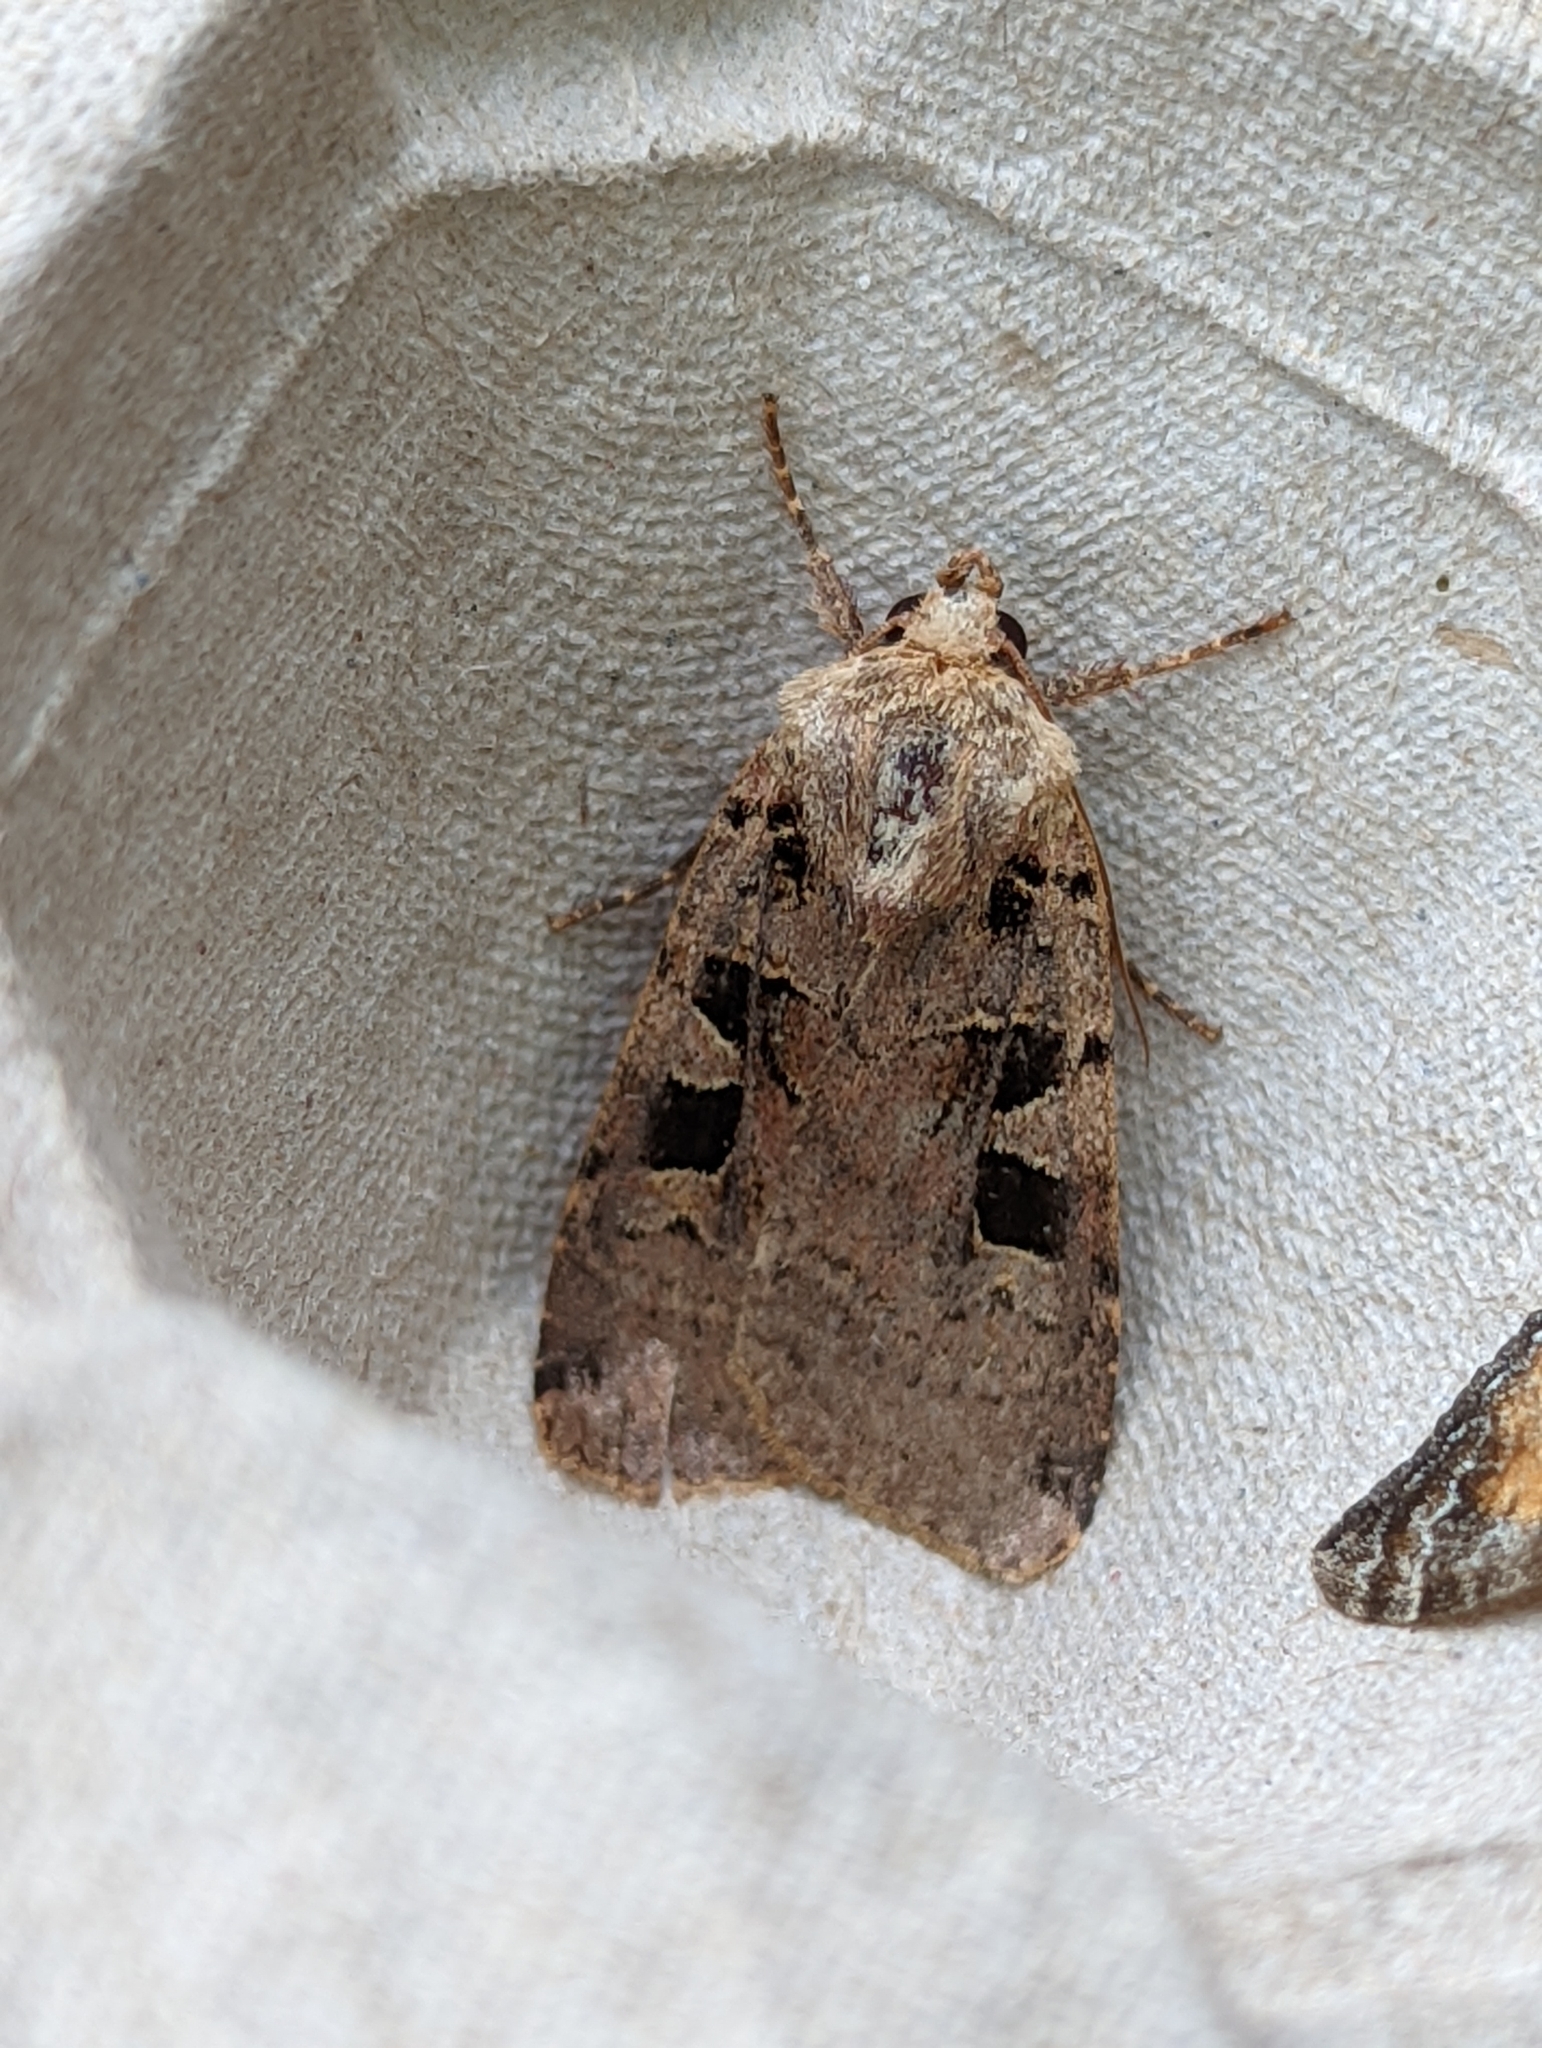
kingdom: Animalia
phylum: Arthropoda
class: Insecta
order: Lepidoptera
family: Noctuidae
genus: Xestia
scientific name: Xestia triangulum
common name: Double square-spot
